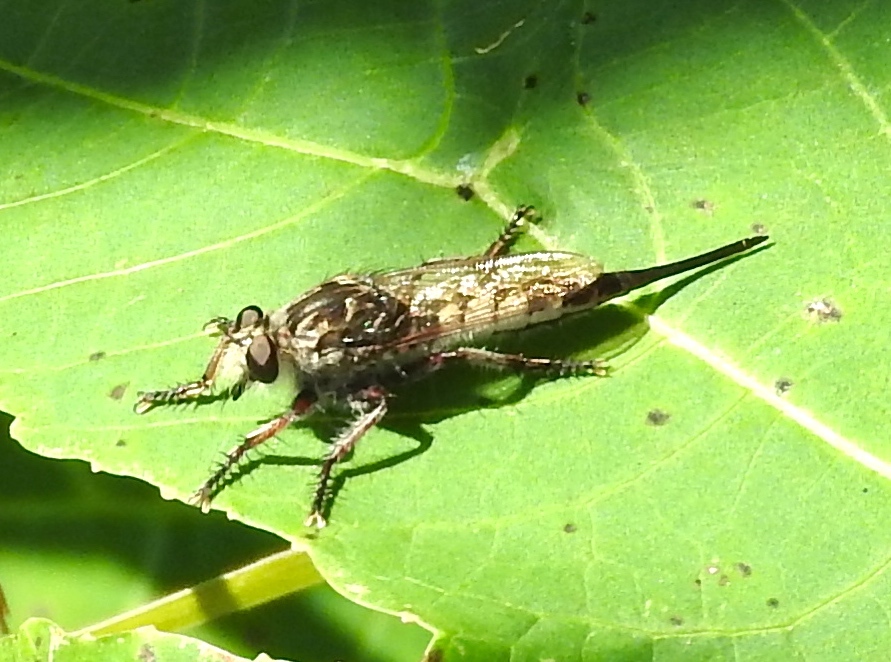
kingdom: Animalia
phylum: Arthropoda
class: Insecta
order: Diptera
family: Asilidae
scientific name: Asilidae
